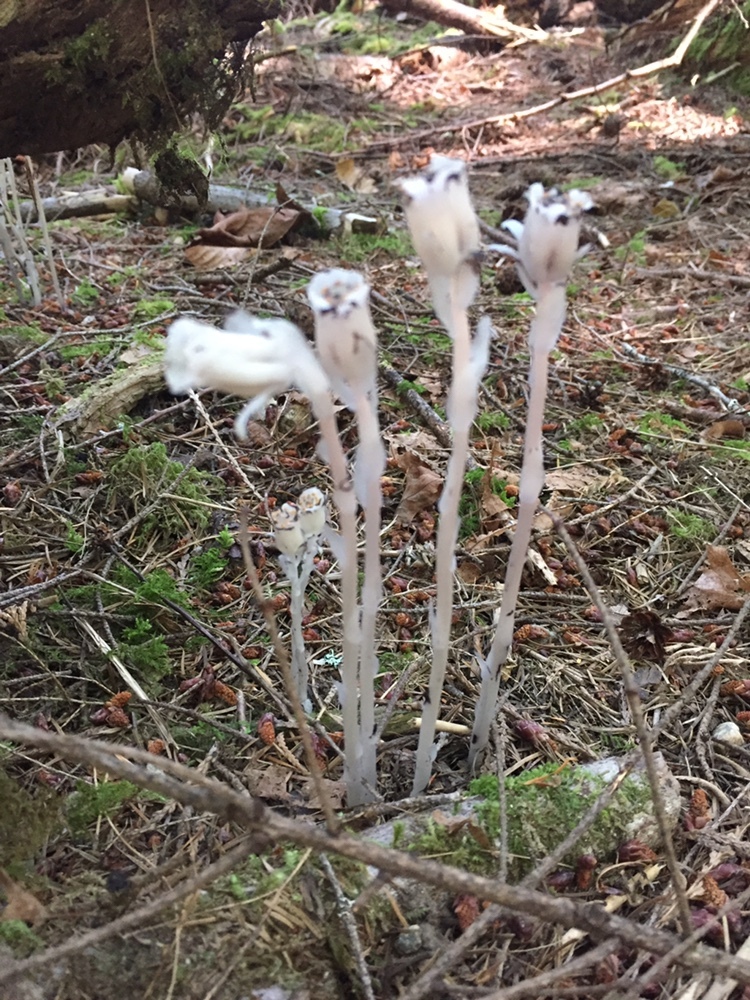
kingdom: Plantae
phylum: Tracheophyta
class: Magnoliopsida
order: Ericales
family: Ericaceae
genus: Monotropa
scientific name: Monotropa uniflora
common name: Convulsion root
